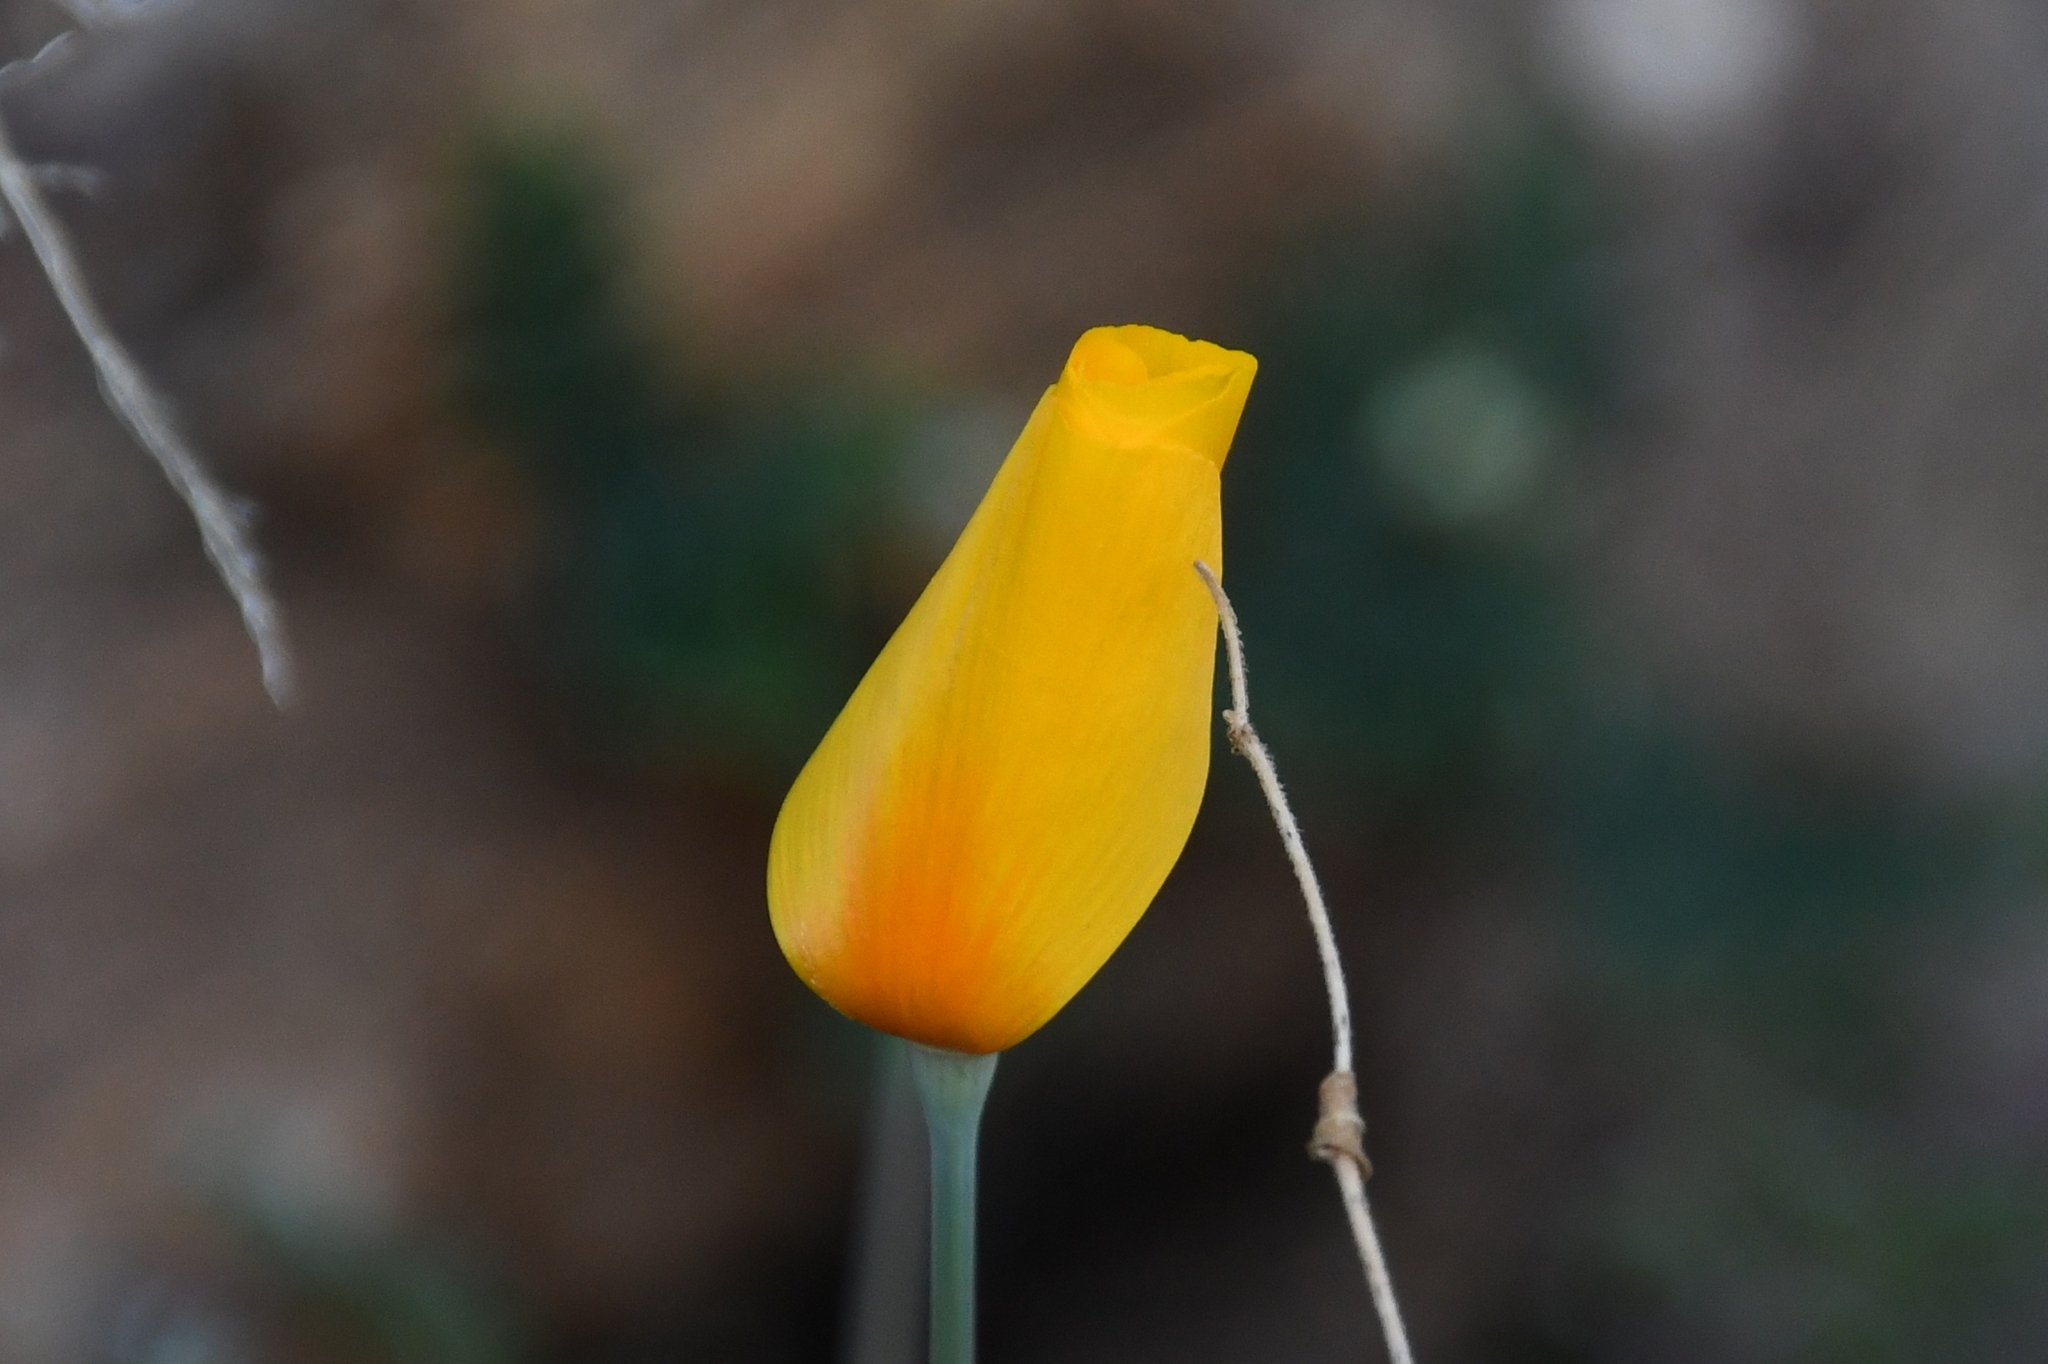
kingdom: Plantae
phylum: Tracheophyta
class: Magnoliopsida
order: Ranunculales
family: Papaveraceae
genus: Eschscholzia
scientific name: Eschscholzia californica
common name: California poppy
